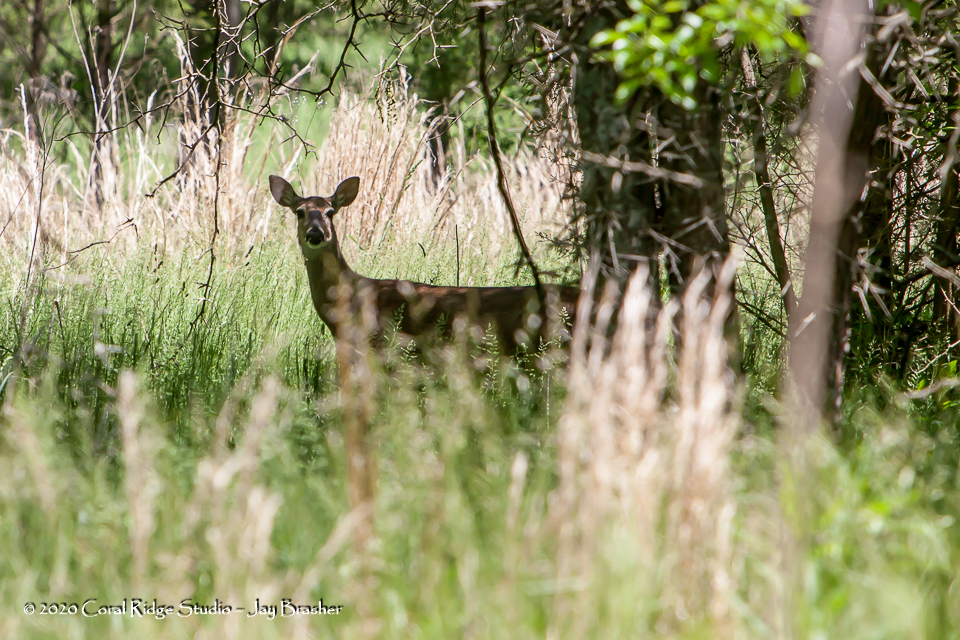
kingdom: Animalia
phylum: Chordata
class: Mammalia
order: Artiodactyla
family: Cervidae
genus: Odocoileus
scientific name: Odocoileus virginianus
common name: White-tailed deer
